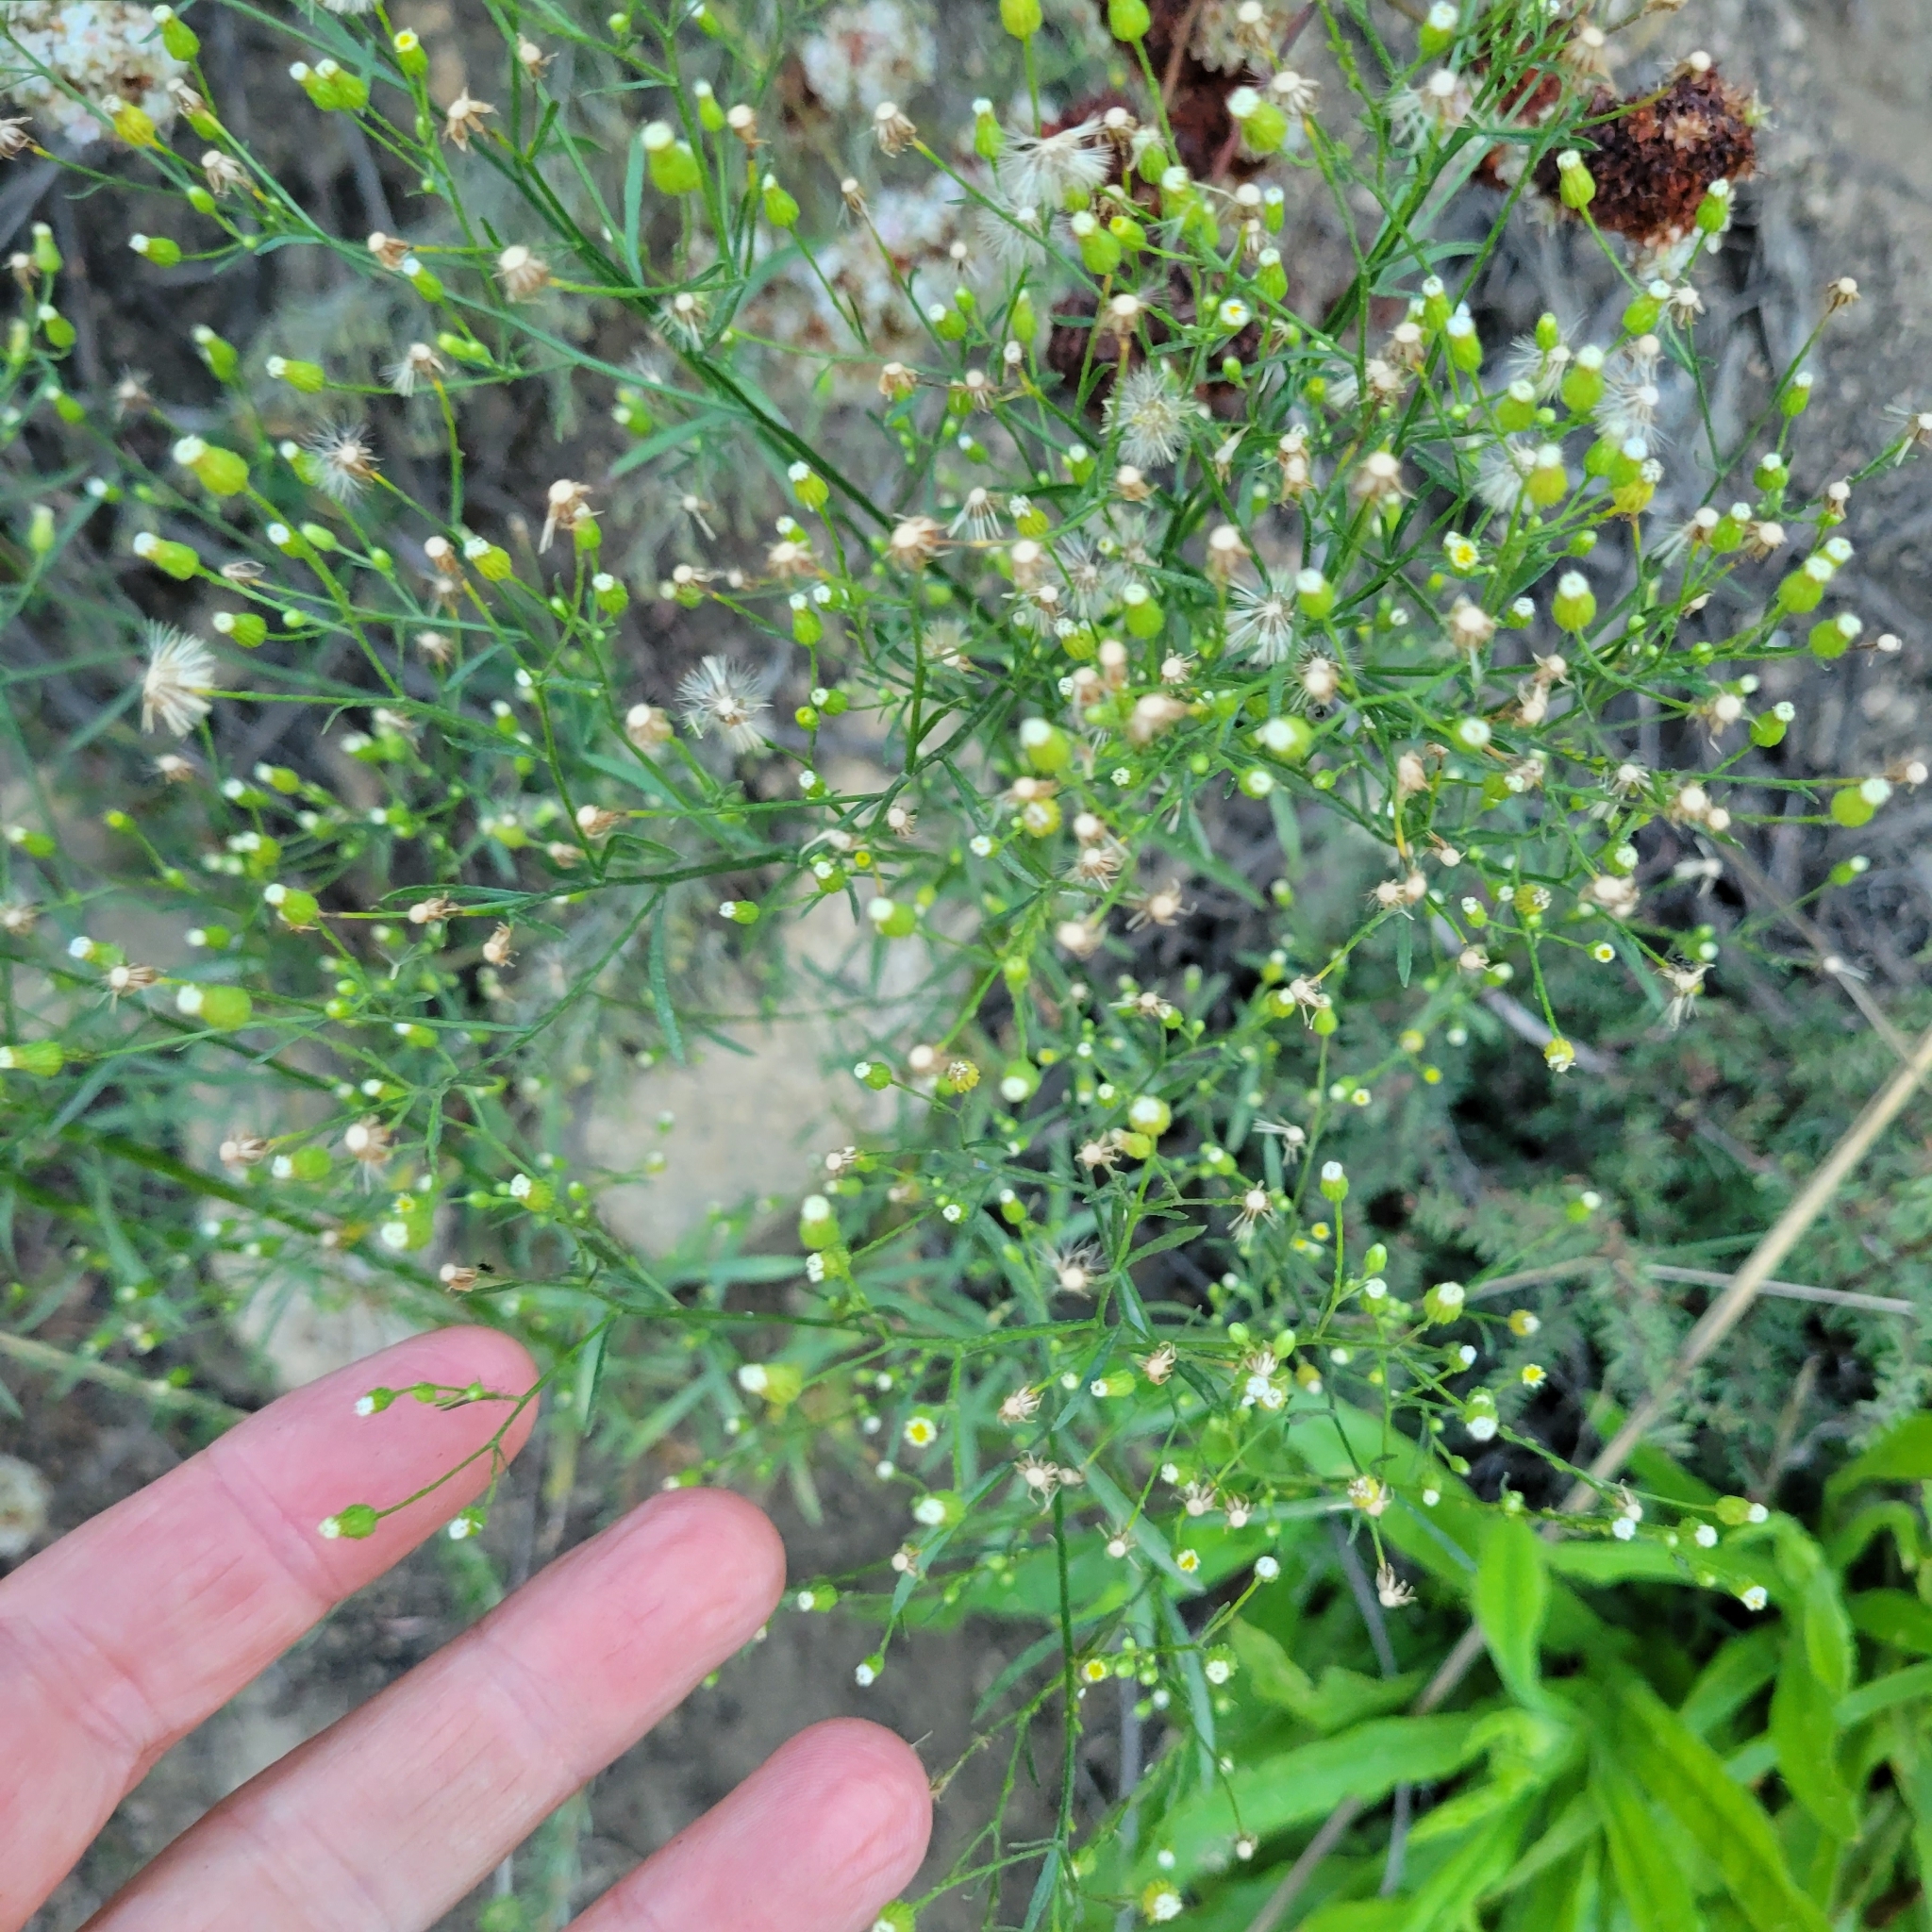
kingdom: Plantae
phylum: Tracheophyta
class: Magnoliopsida
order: Asterales
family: Asteraceae
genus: Erigeron
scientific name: Erigeron canadensis
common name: Canadian fleabane
